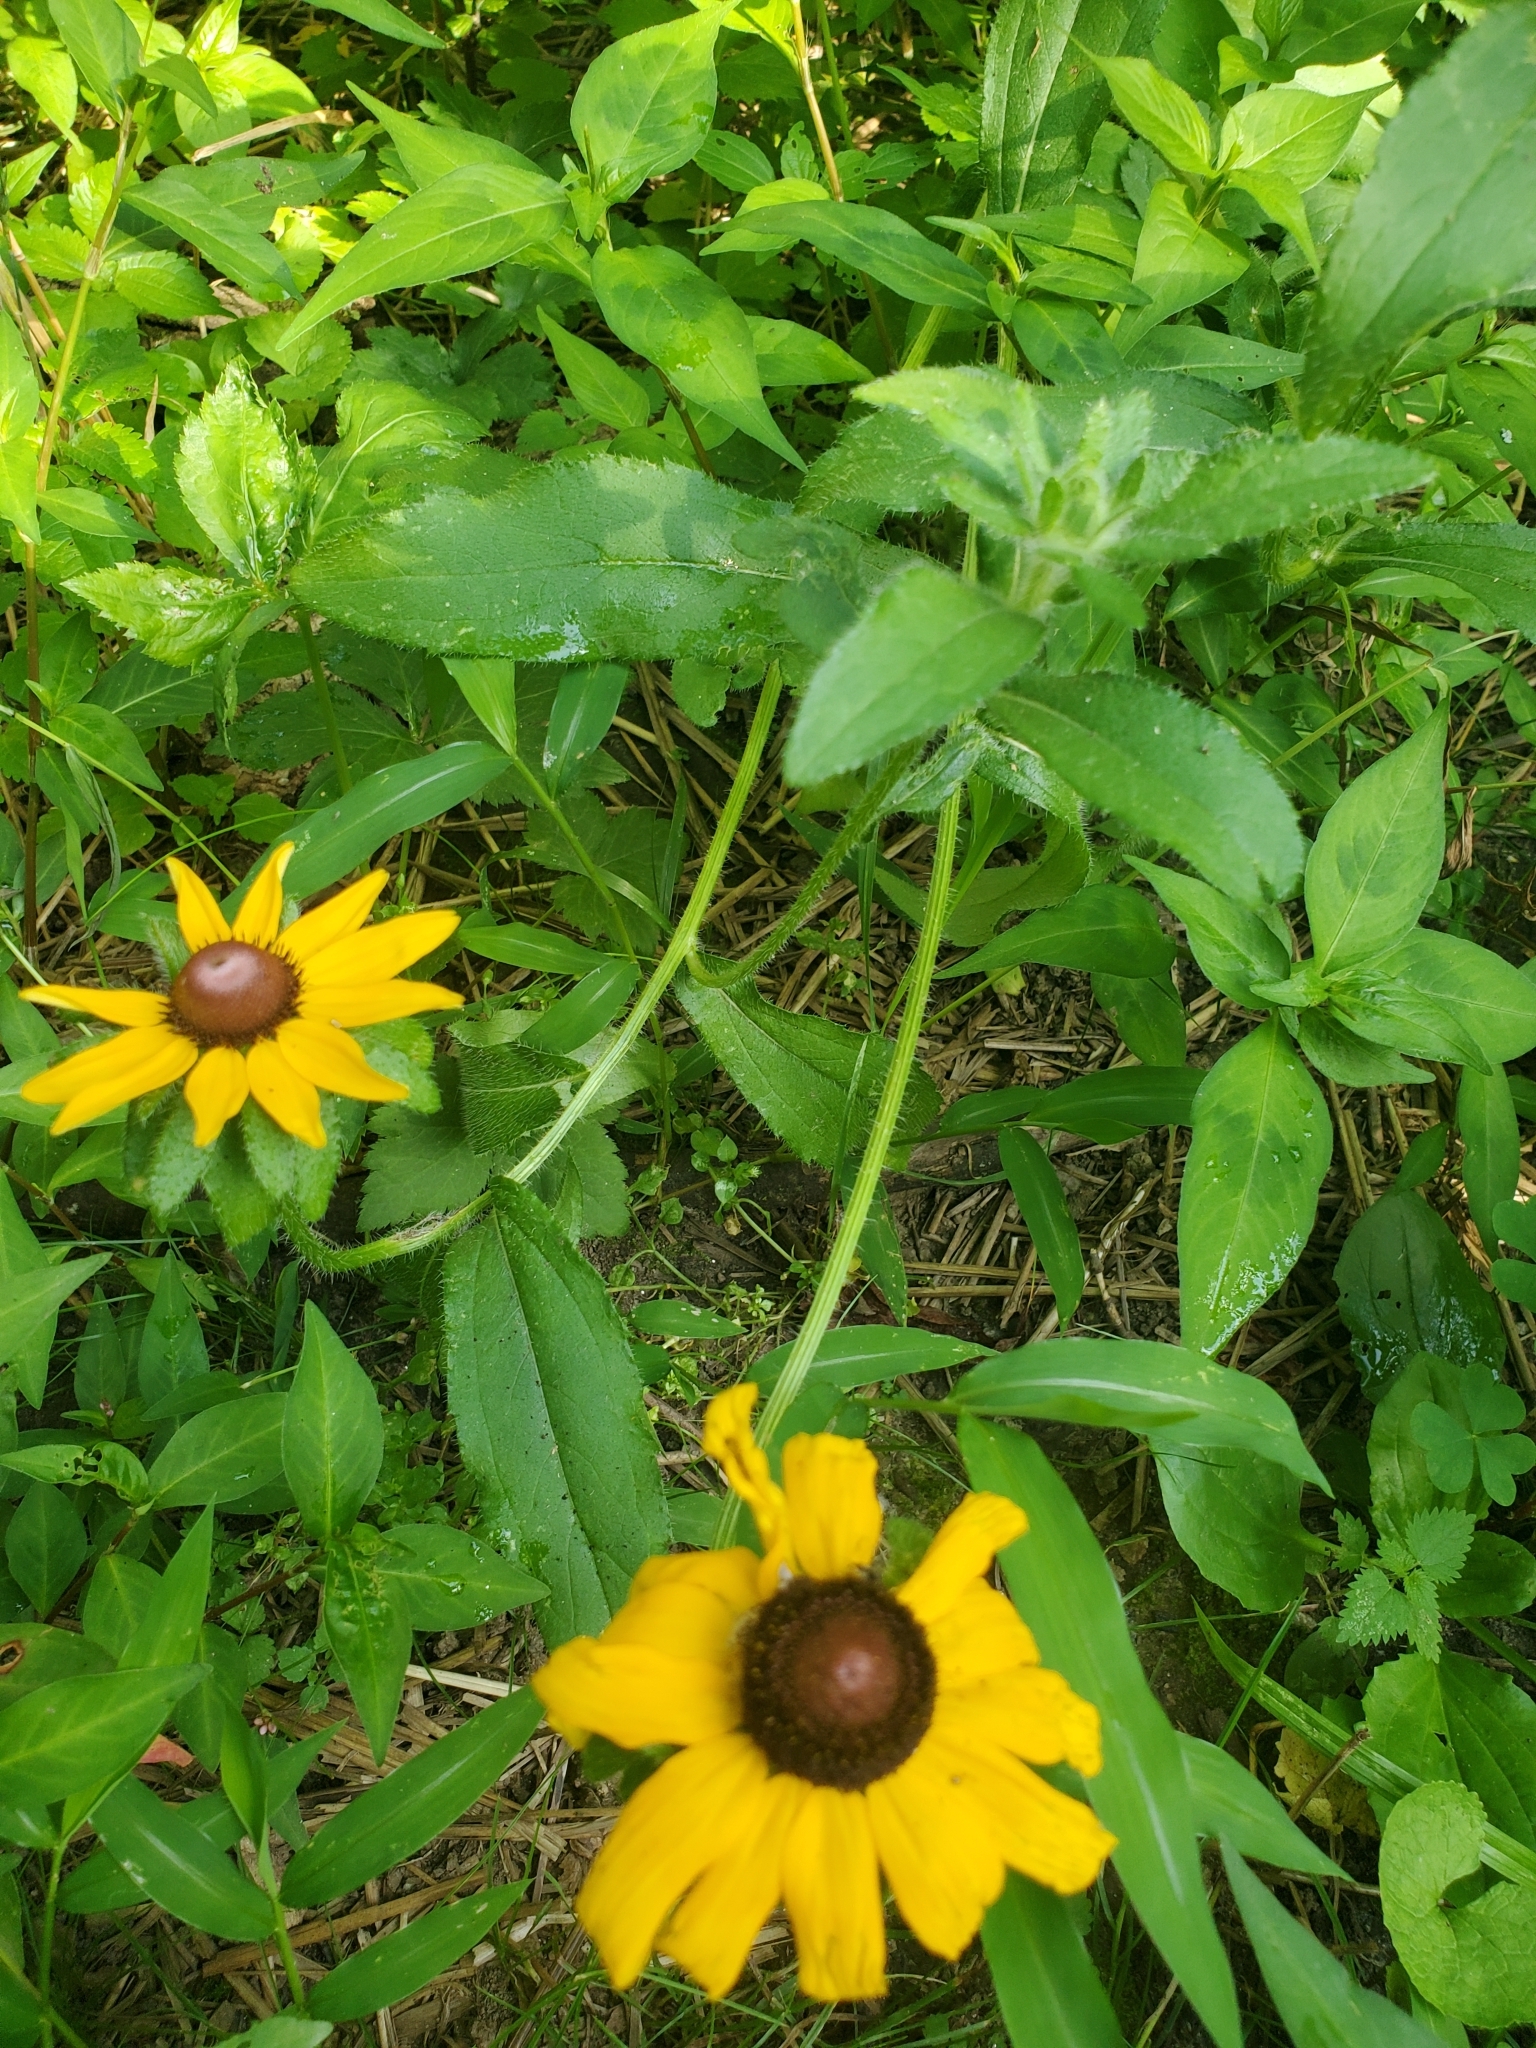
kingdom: Plantae
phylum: Tracheophyta
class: Magnoliopsida
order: Asterales
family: Asteraceae
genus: Rudbeckia
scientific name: Rudbeckia hirta
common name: Black-eyed-susan
